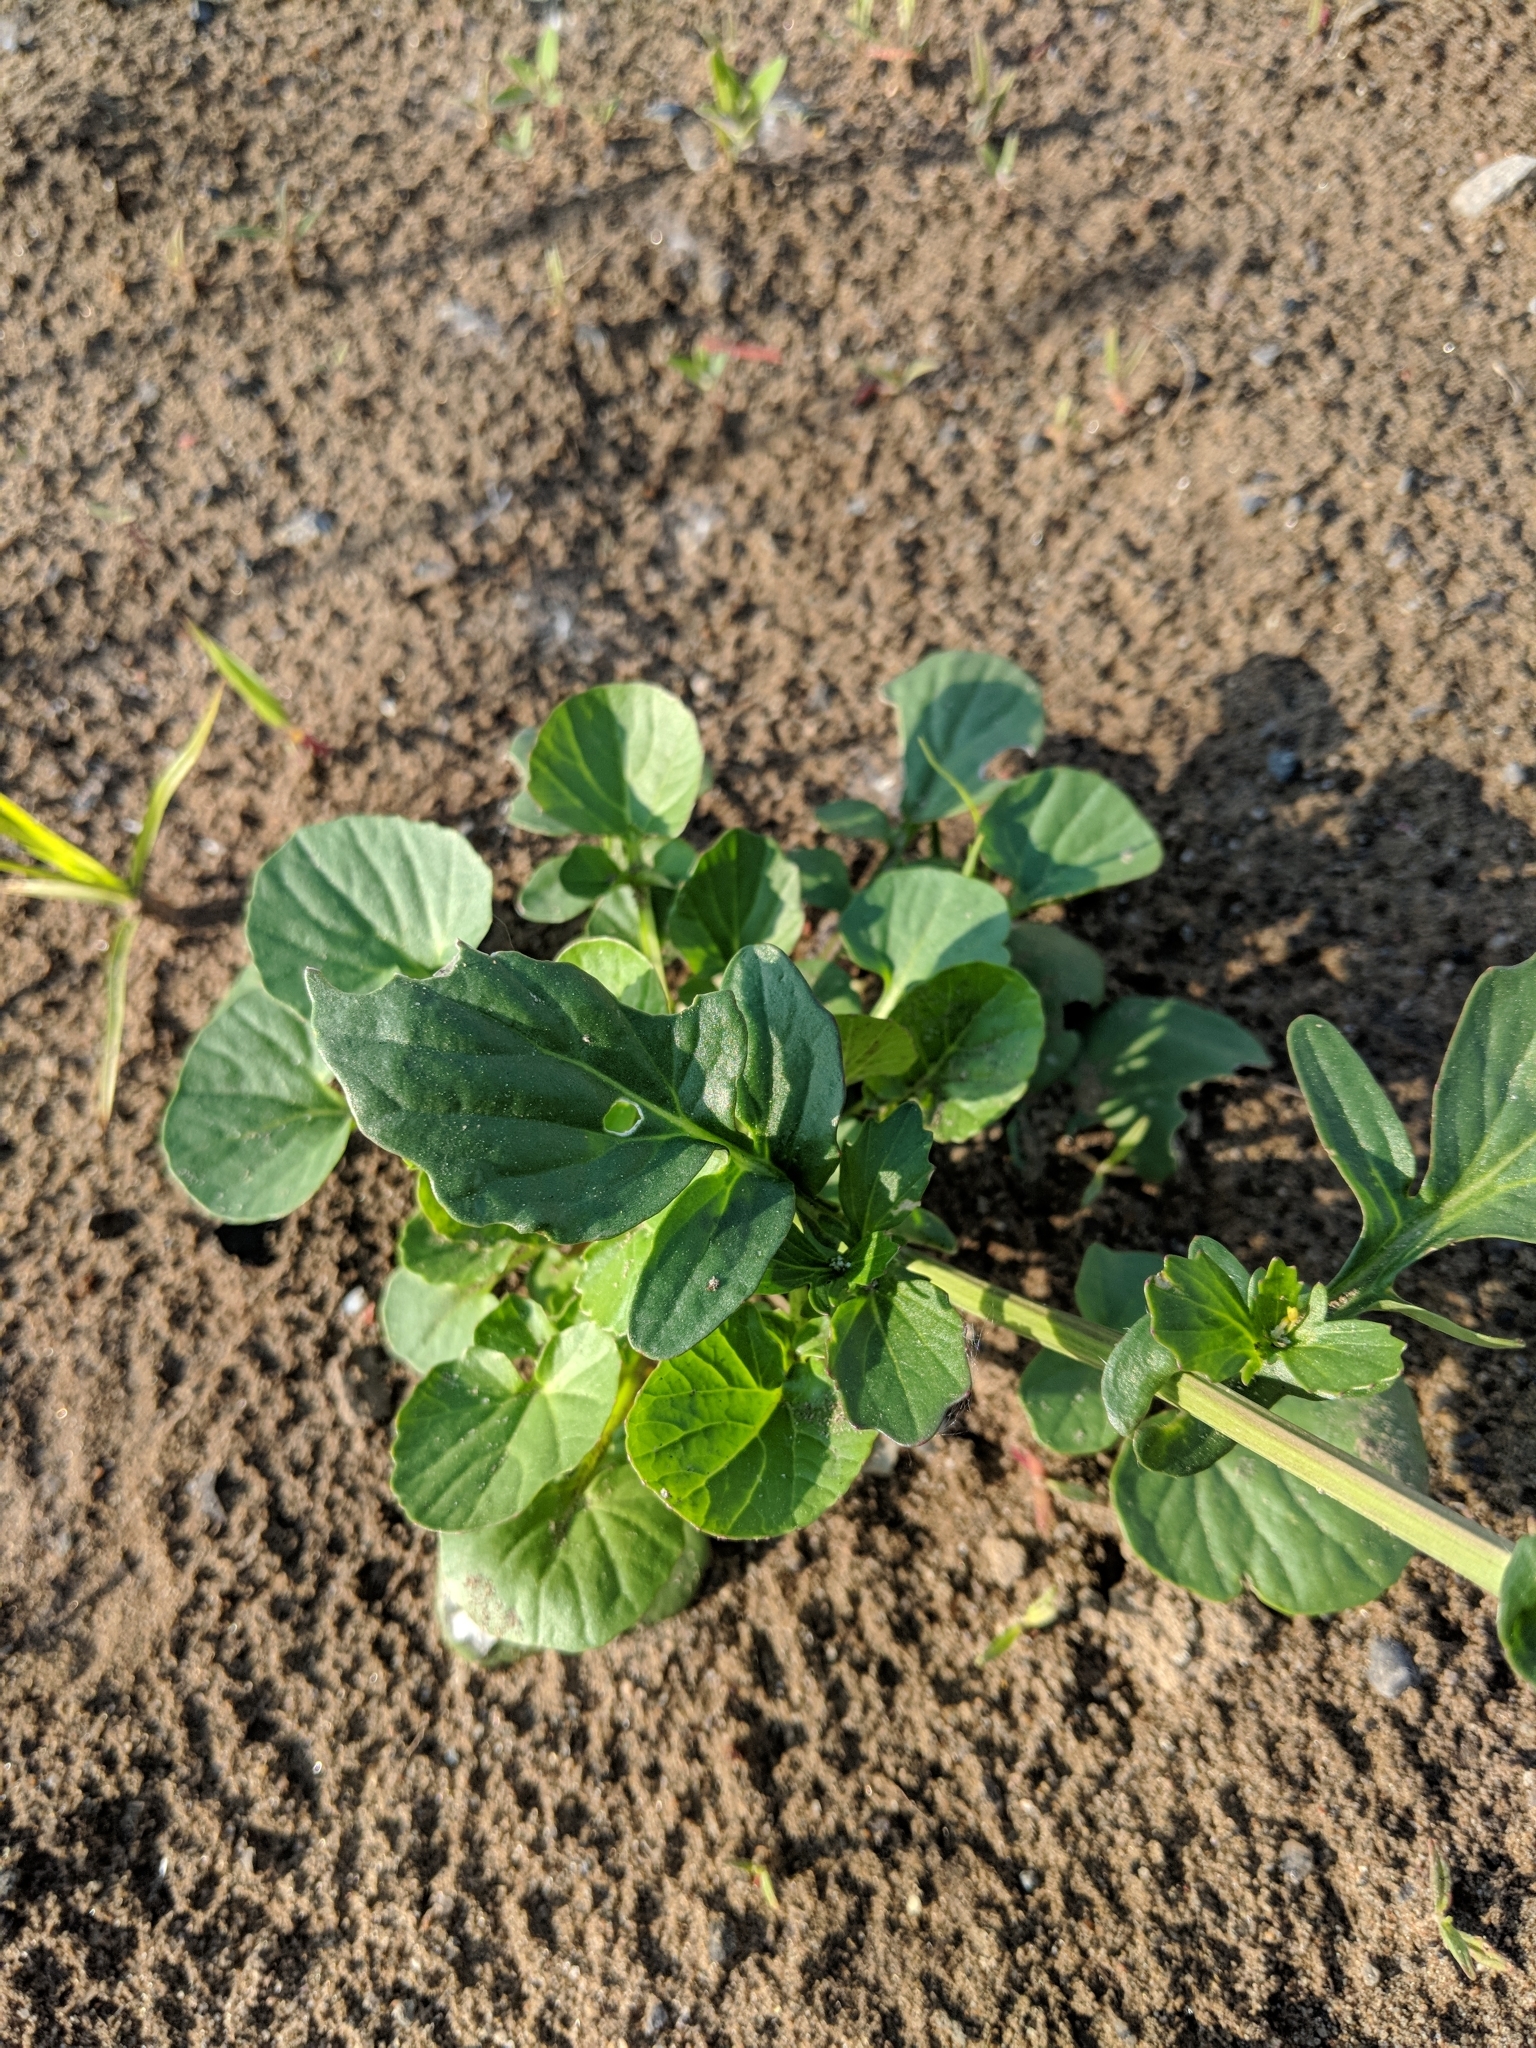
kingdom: Plantae
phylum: Tracheophyta
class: Magnoliopsida
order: Brassicales
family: Brassicaceae
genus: Barbarea
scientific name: Barbarea vulgaris
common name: Cressy-greens
